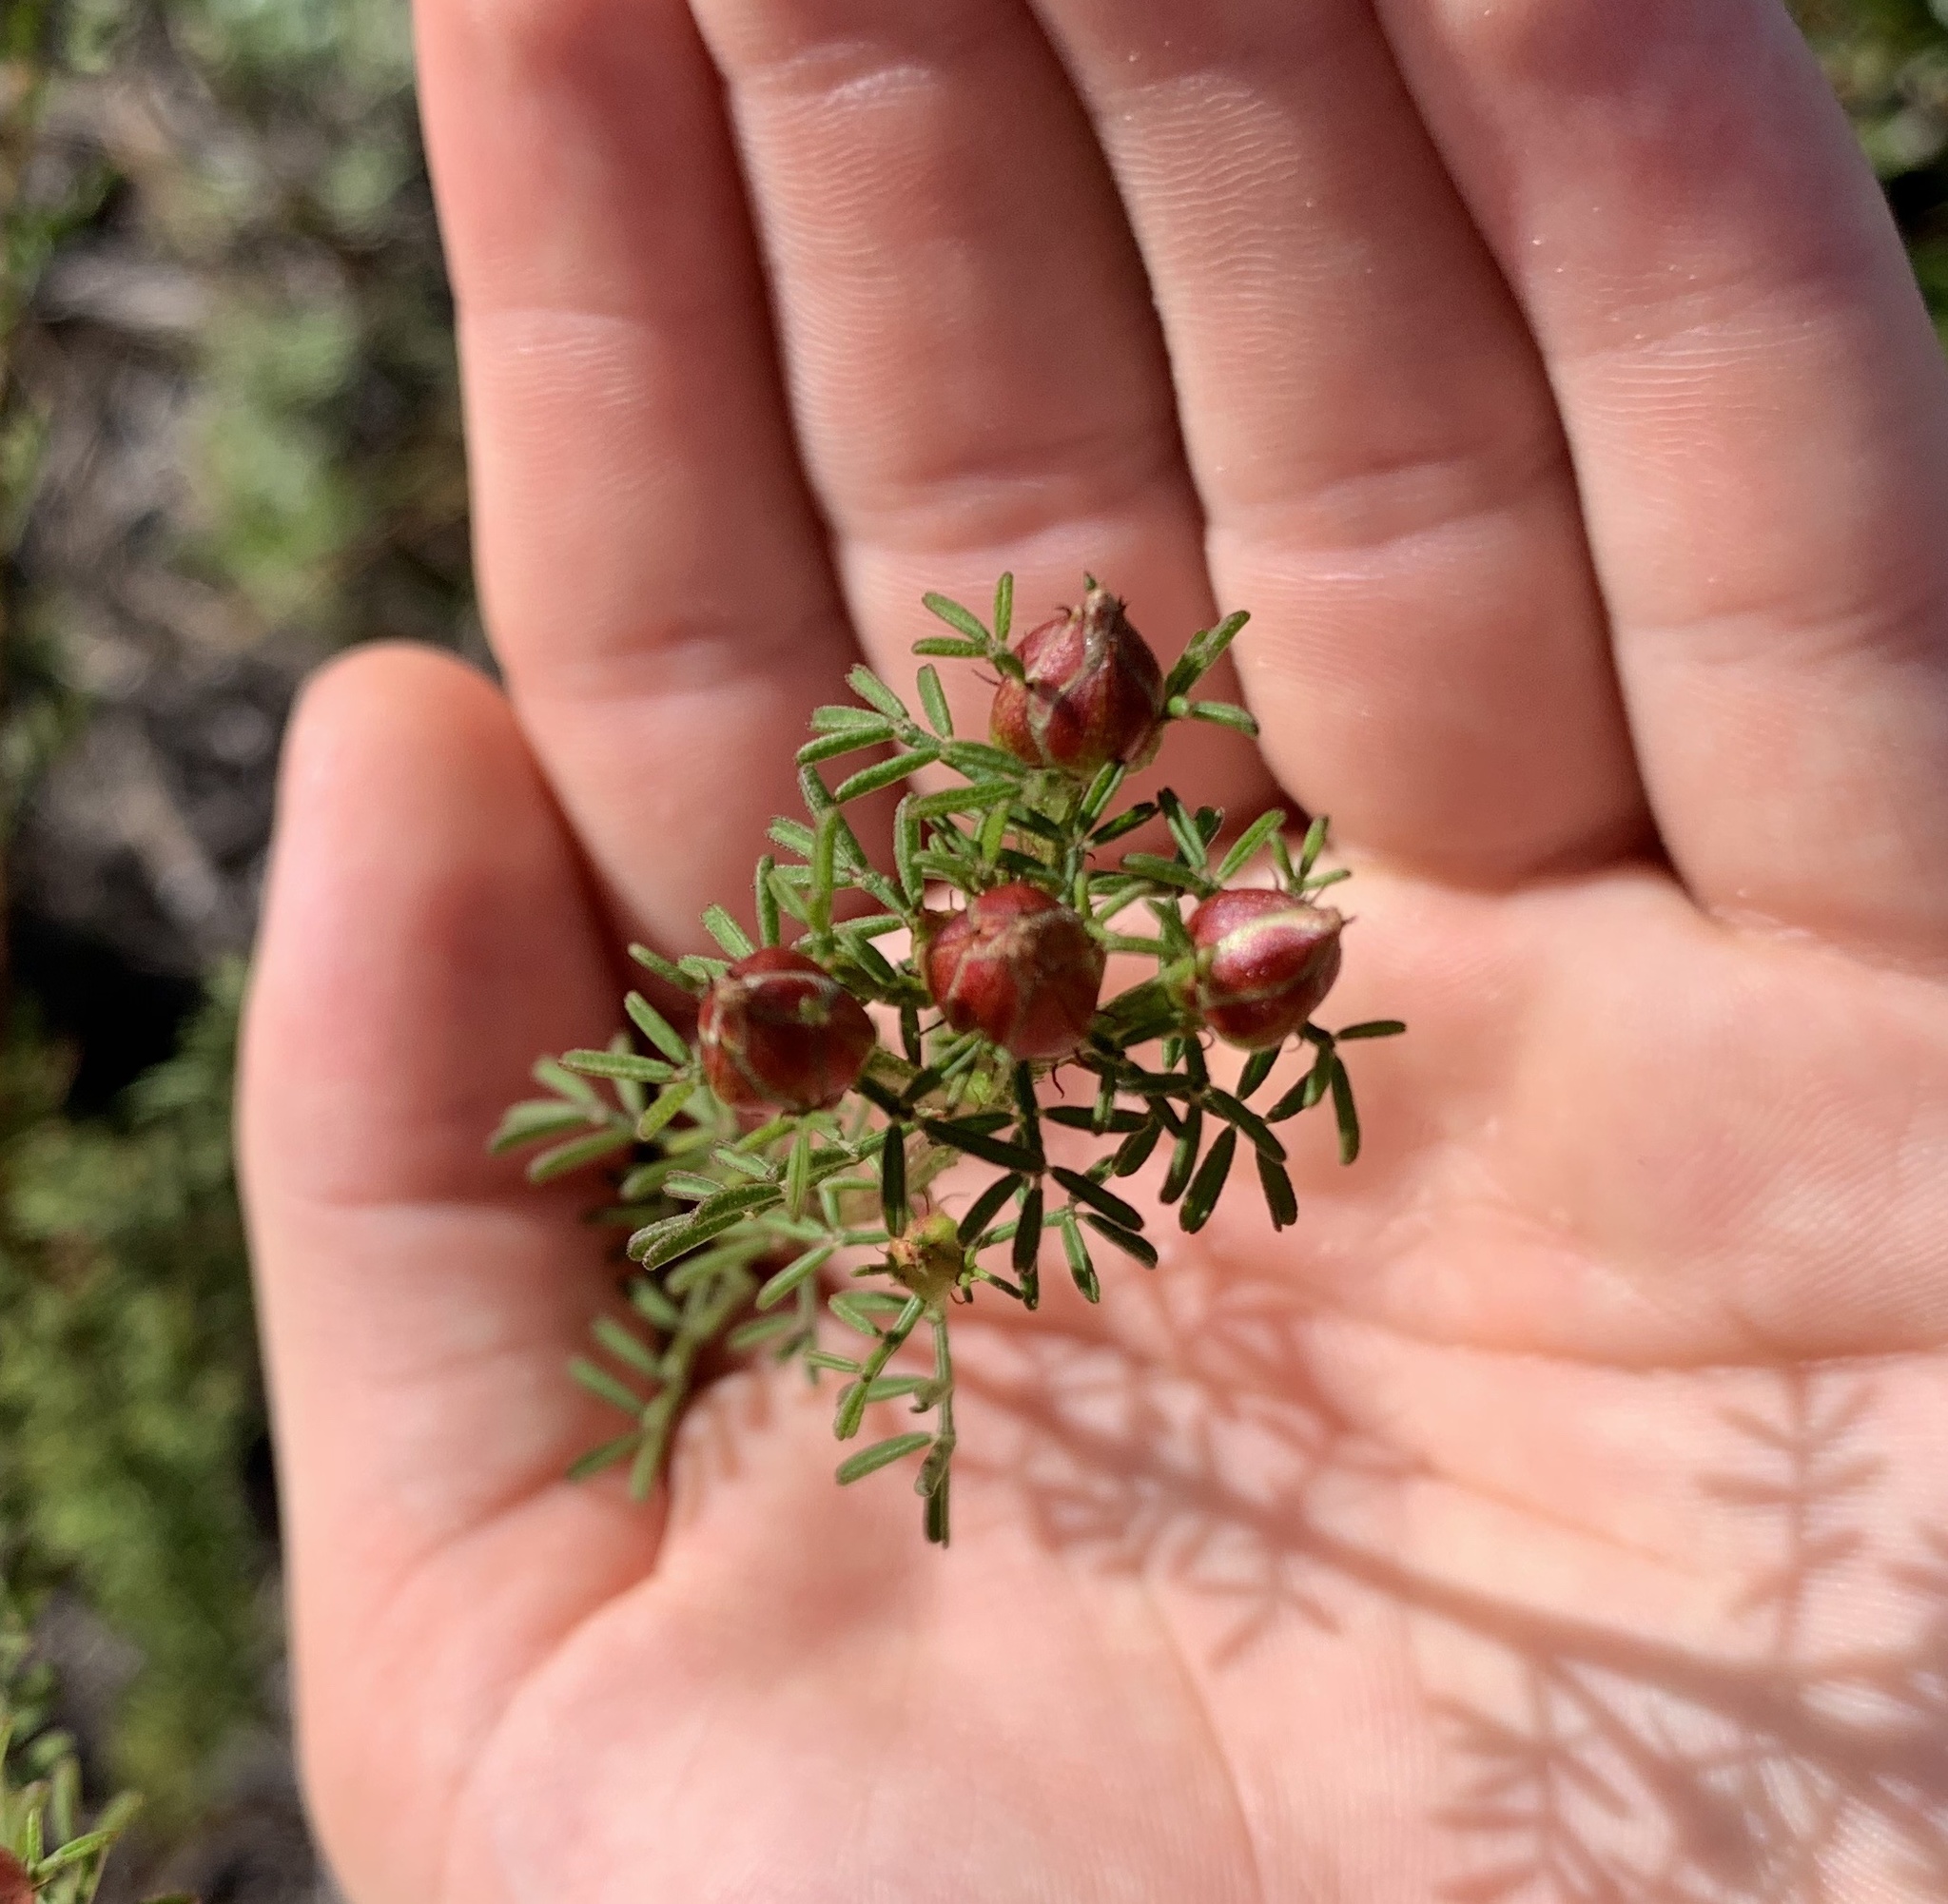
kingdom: Plantae
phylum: Tracheophyta
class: Magnoliopsida
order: Fabales
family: Fabaceae
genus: Dalea
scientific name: Dalea pinnata
